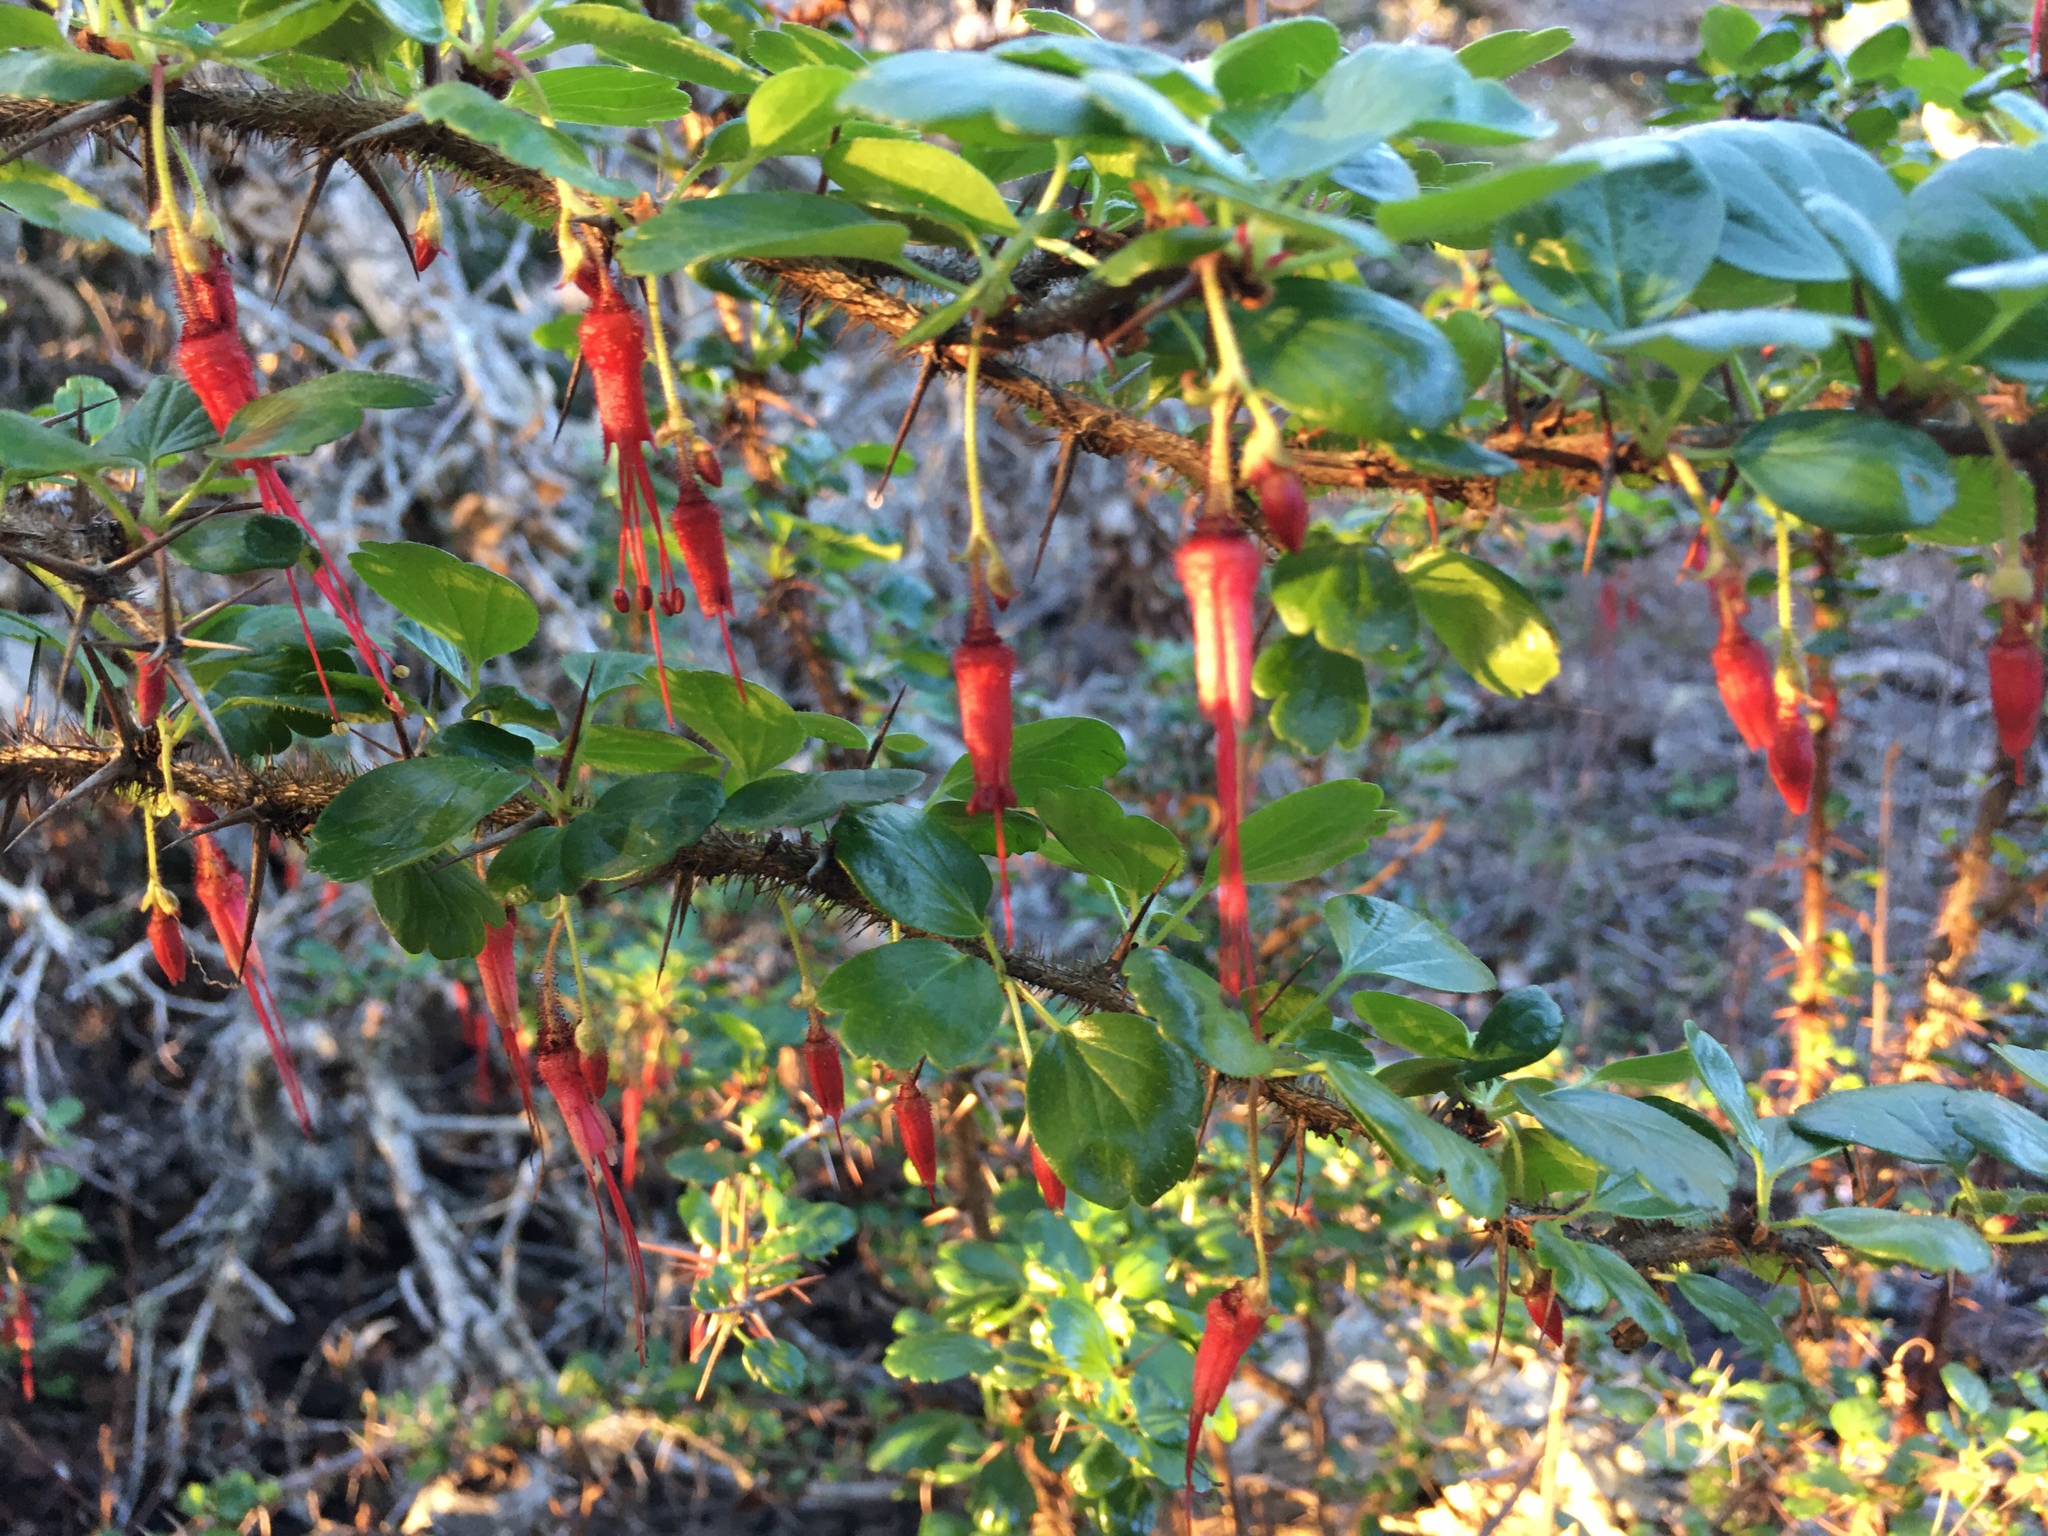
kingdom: Plantae
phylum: Tracheophyta
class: Magnoliopsida
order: Saxifragales
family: Grossulariaceae
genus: Ribes
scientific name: Ribes speciosum
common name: Fuchsia-flower gooseberry
